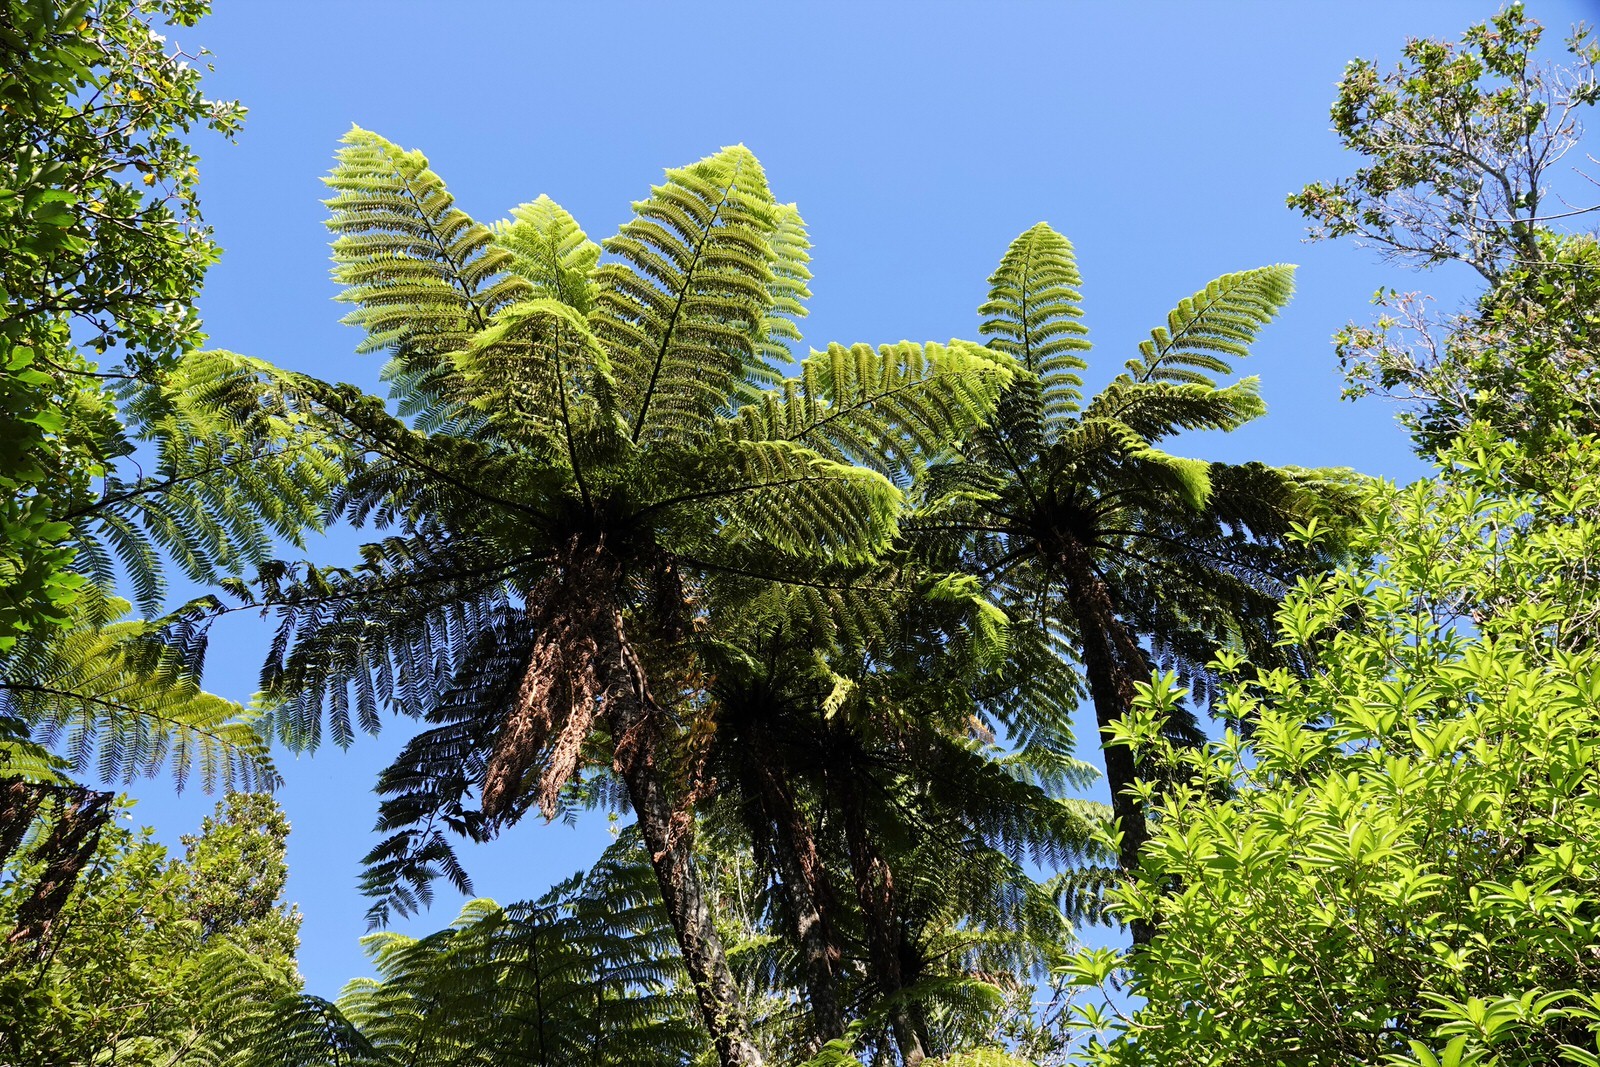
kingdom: Plantae
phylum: Tracheophyta
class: Polypodiopsida
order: Cyatheales
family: Cyatheaceae
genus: Sphaeropteris
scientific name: Sphaeropteris medullaris
